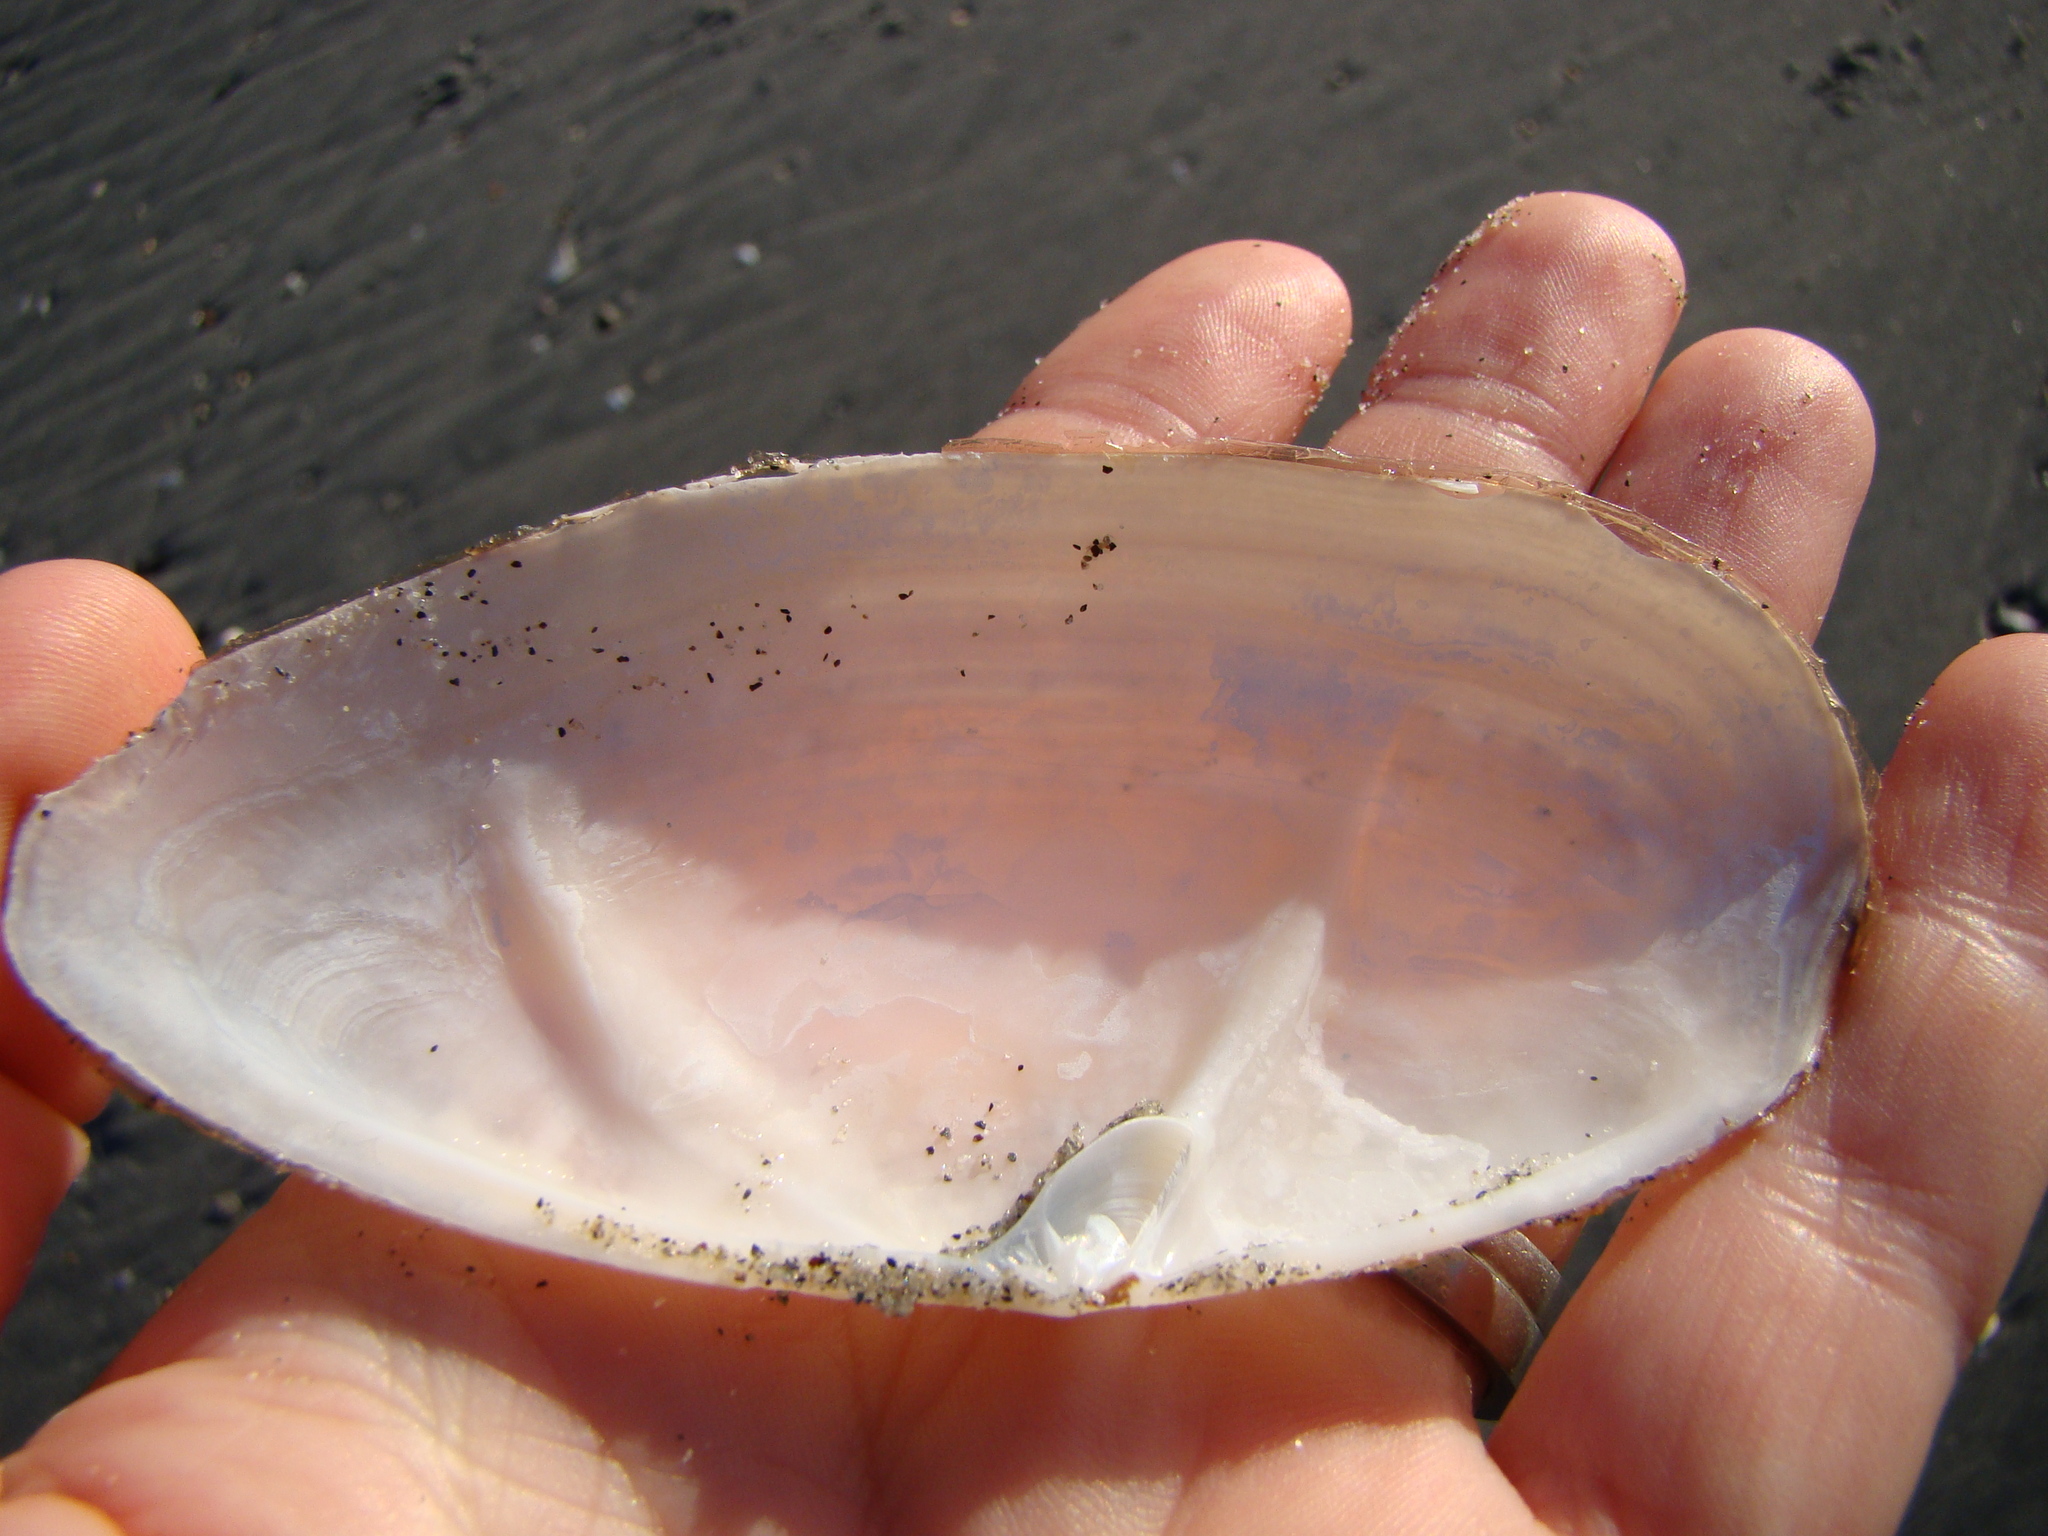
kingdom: Animalia
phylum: Mollusca
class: Bivalvia
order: Venerida
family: Mactridae
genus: Resania
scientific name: Resania lanceolata
